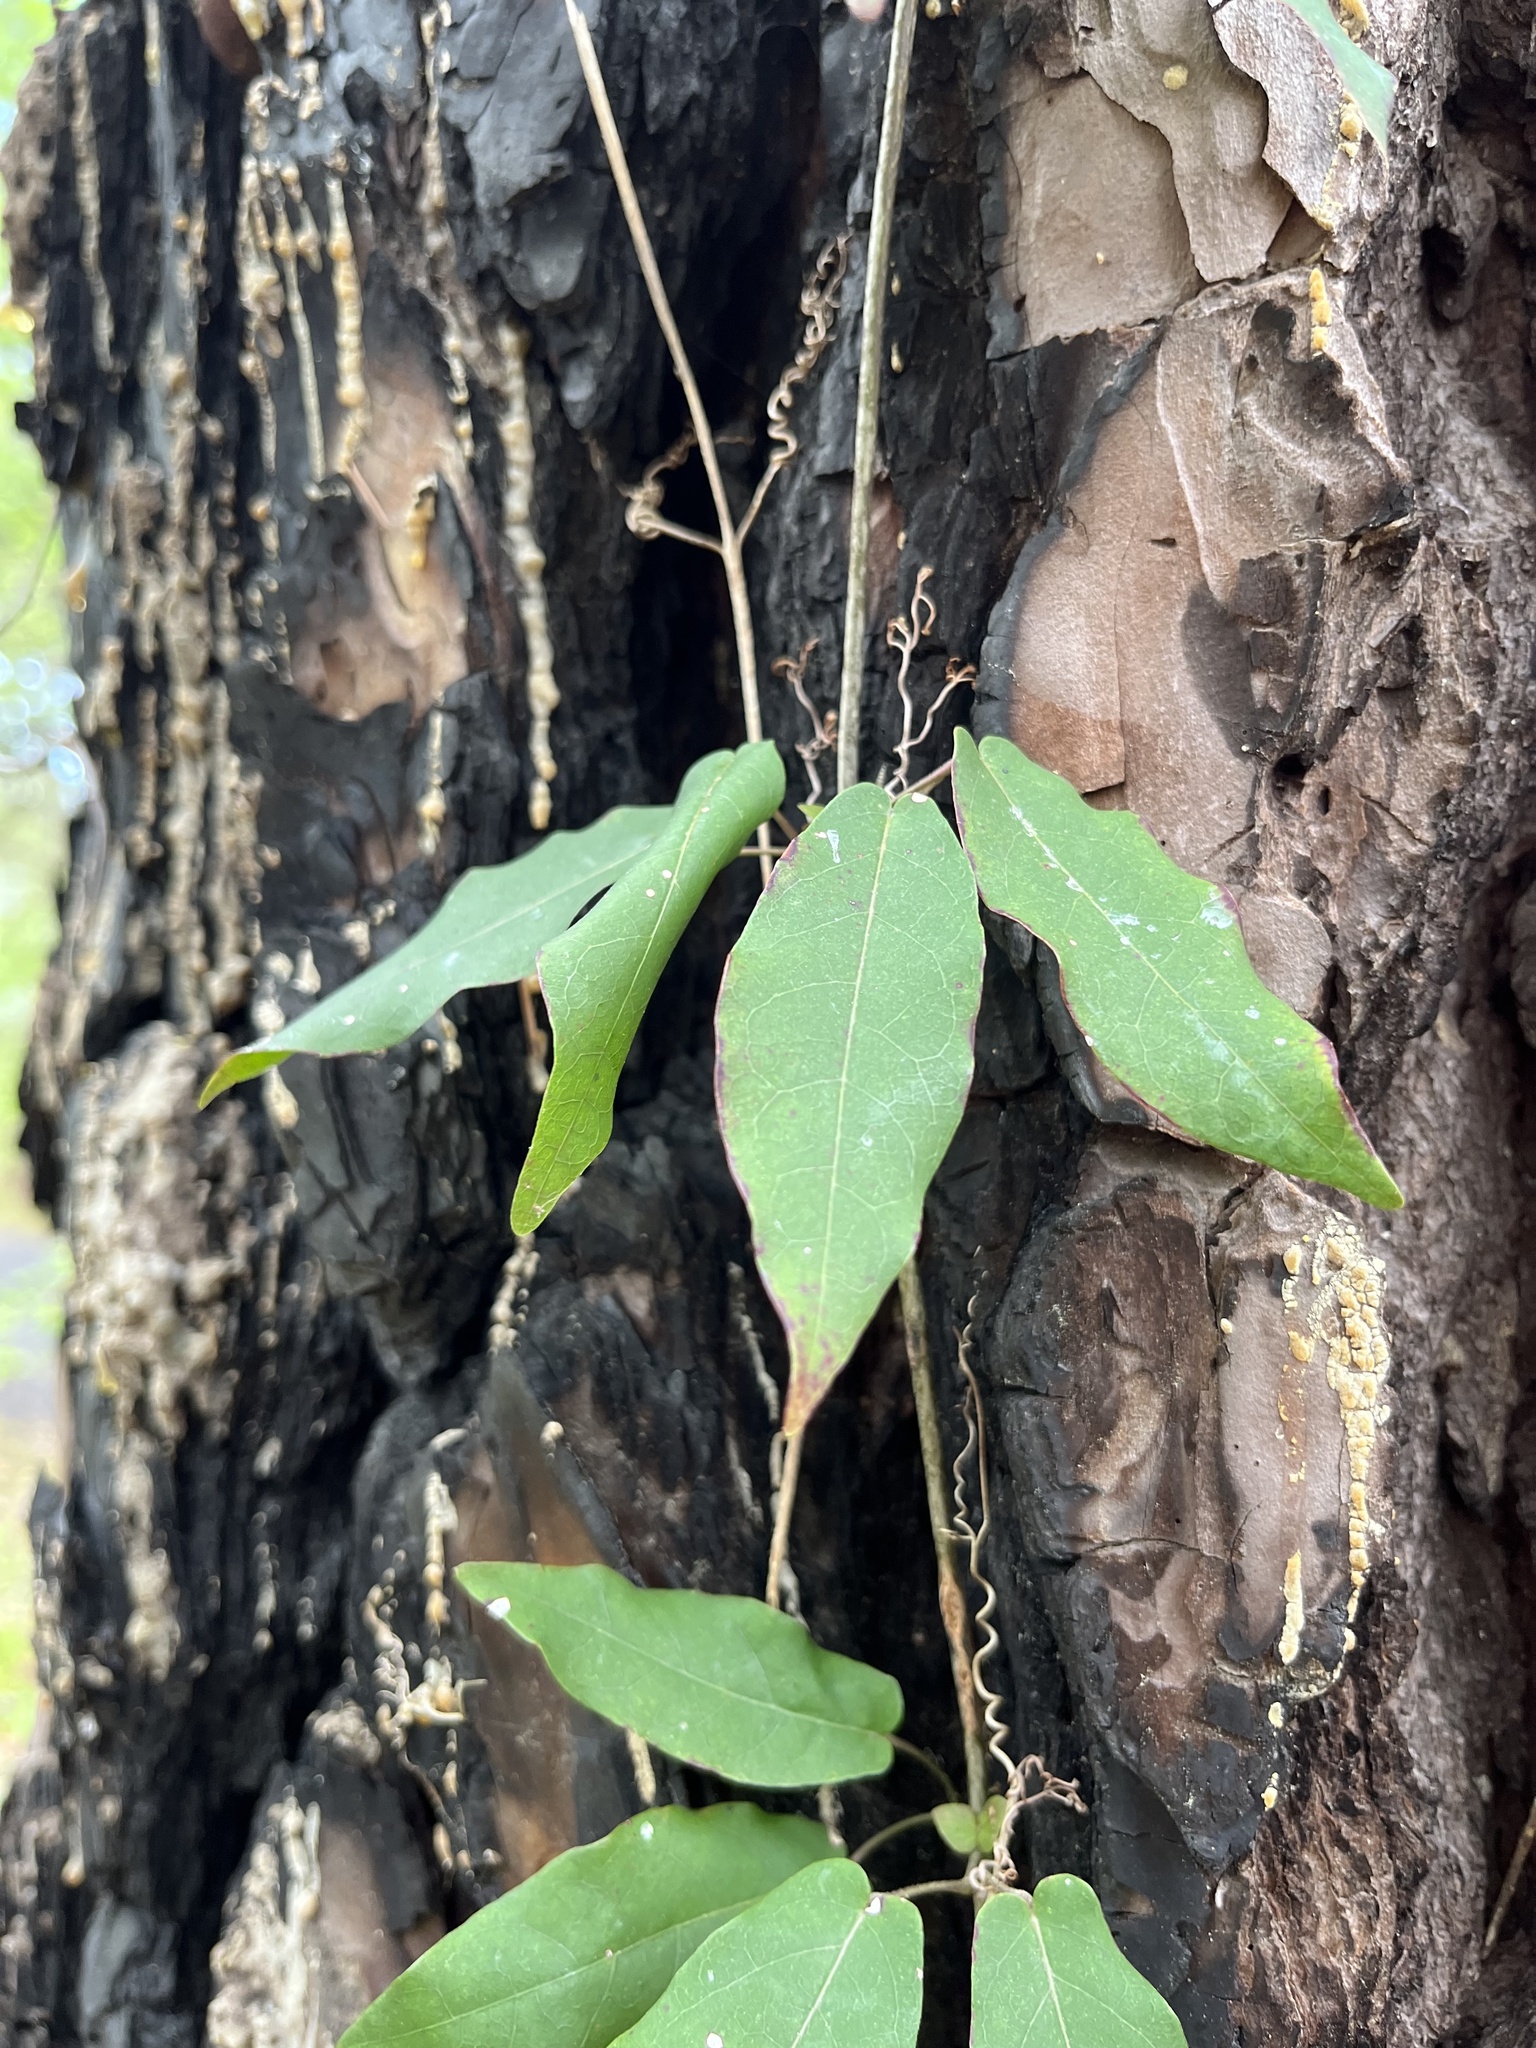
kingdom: Plantae
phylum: Tracheophyta
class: Magnoliopsida
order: Lamiales
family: Bignoniaceae
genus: Bignonia
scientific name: Bignonia capreolata
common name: Crossvine
